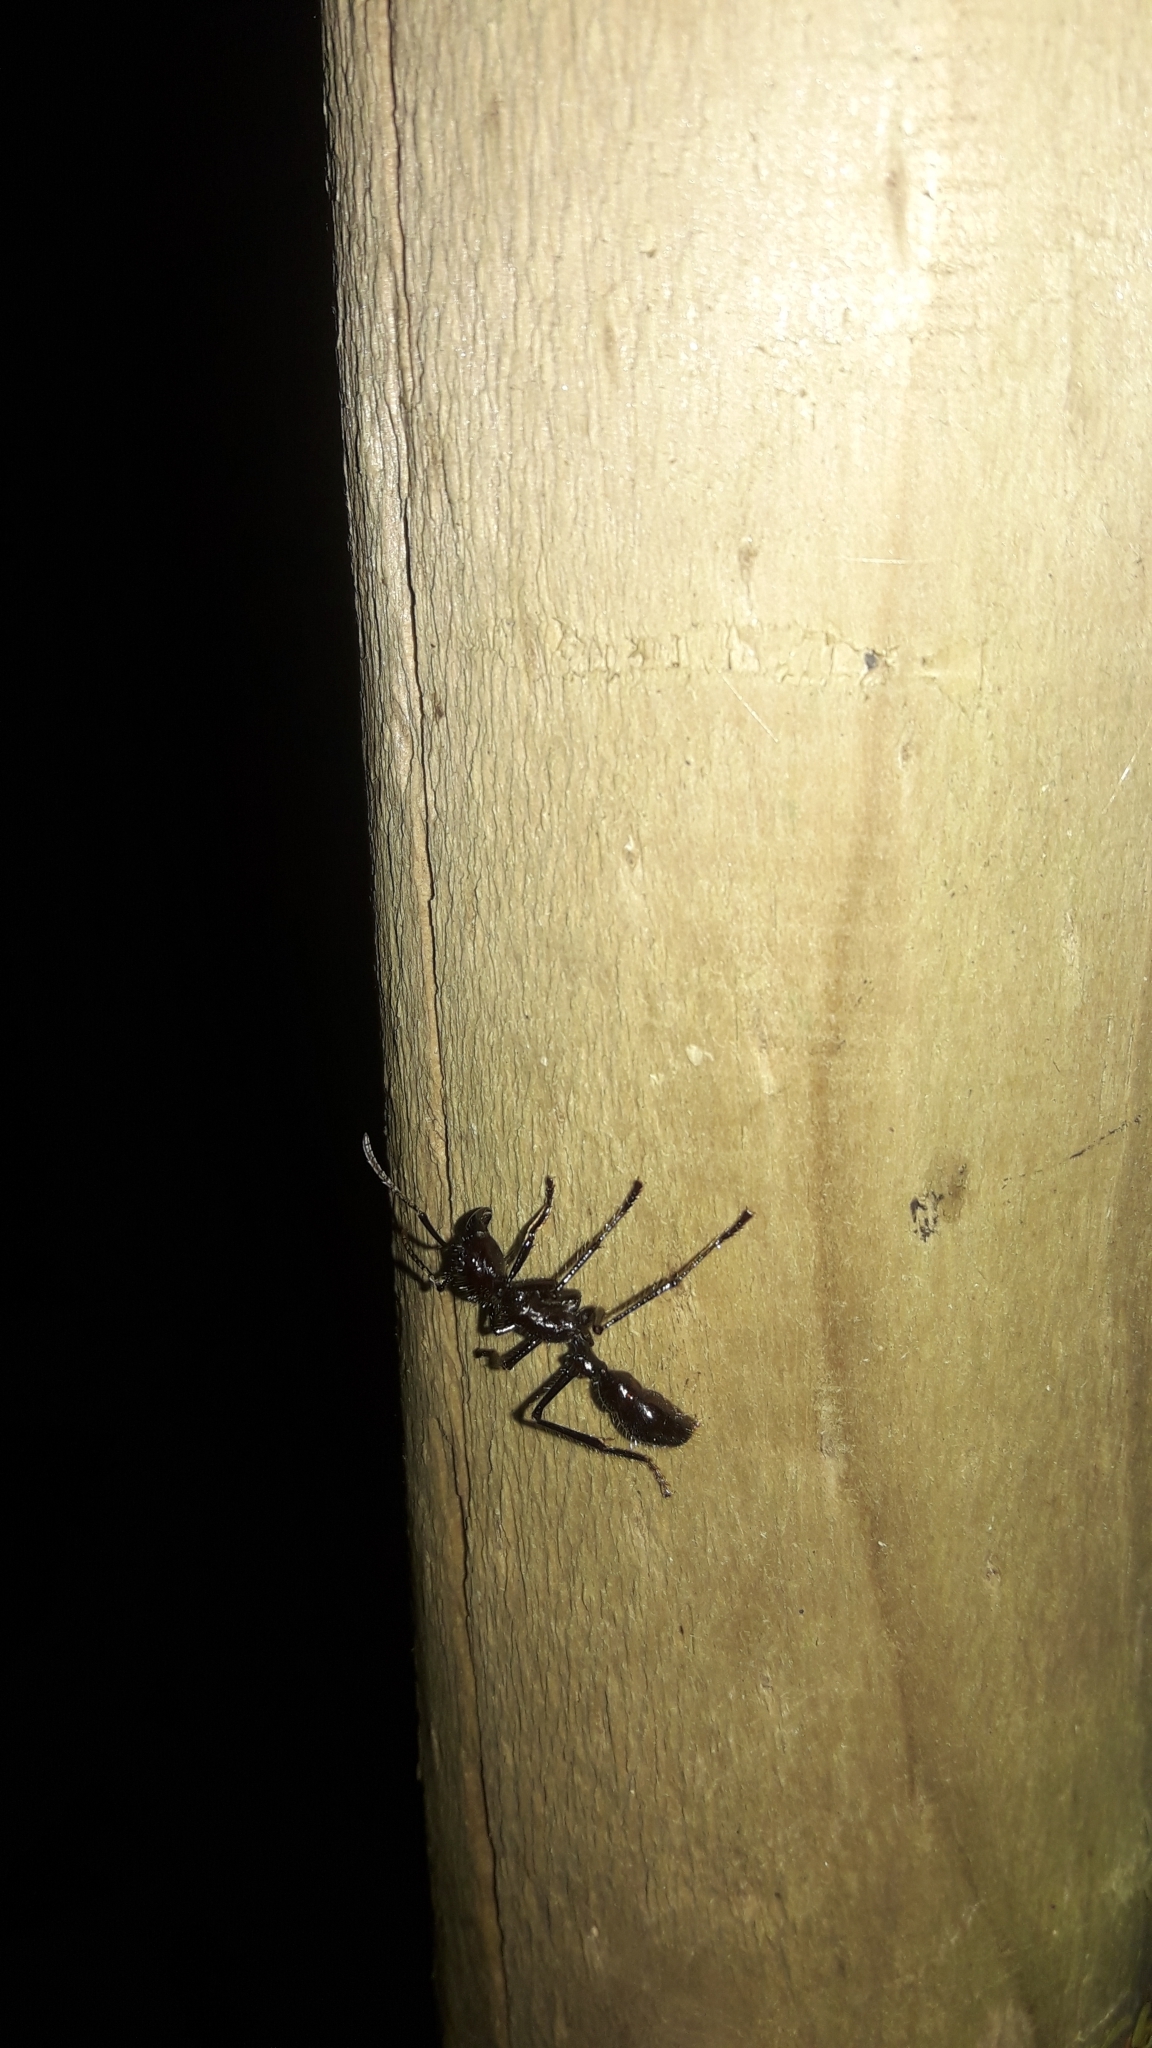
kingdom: Animalia
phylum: Arthropoda
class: Insecta
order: Hymenoptera
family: Formicidae
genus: Paraponera
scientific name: Paraponera clavata
